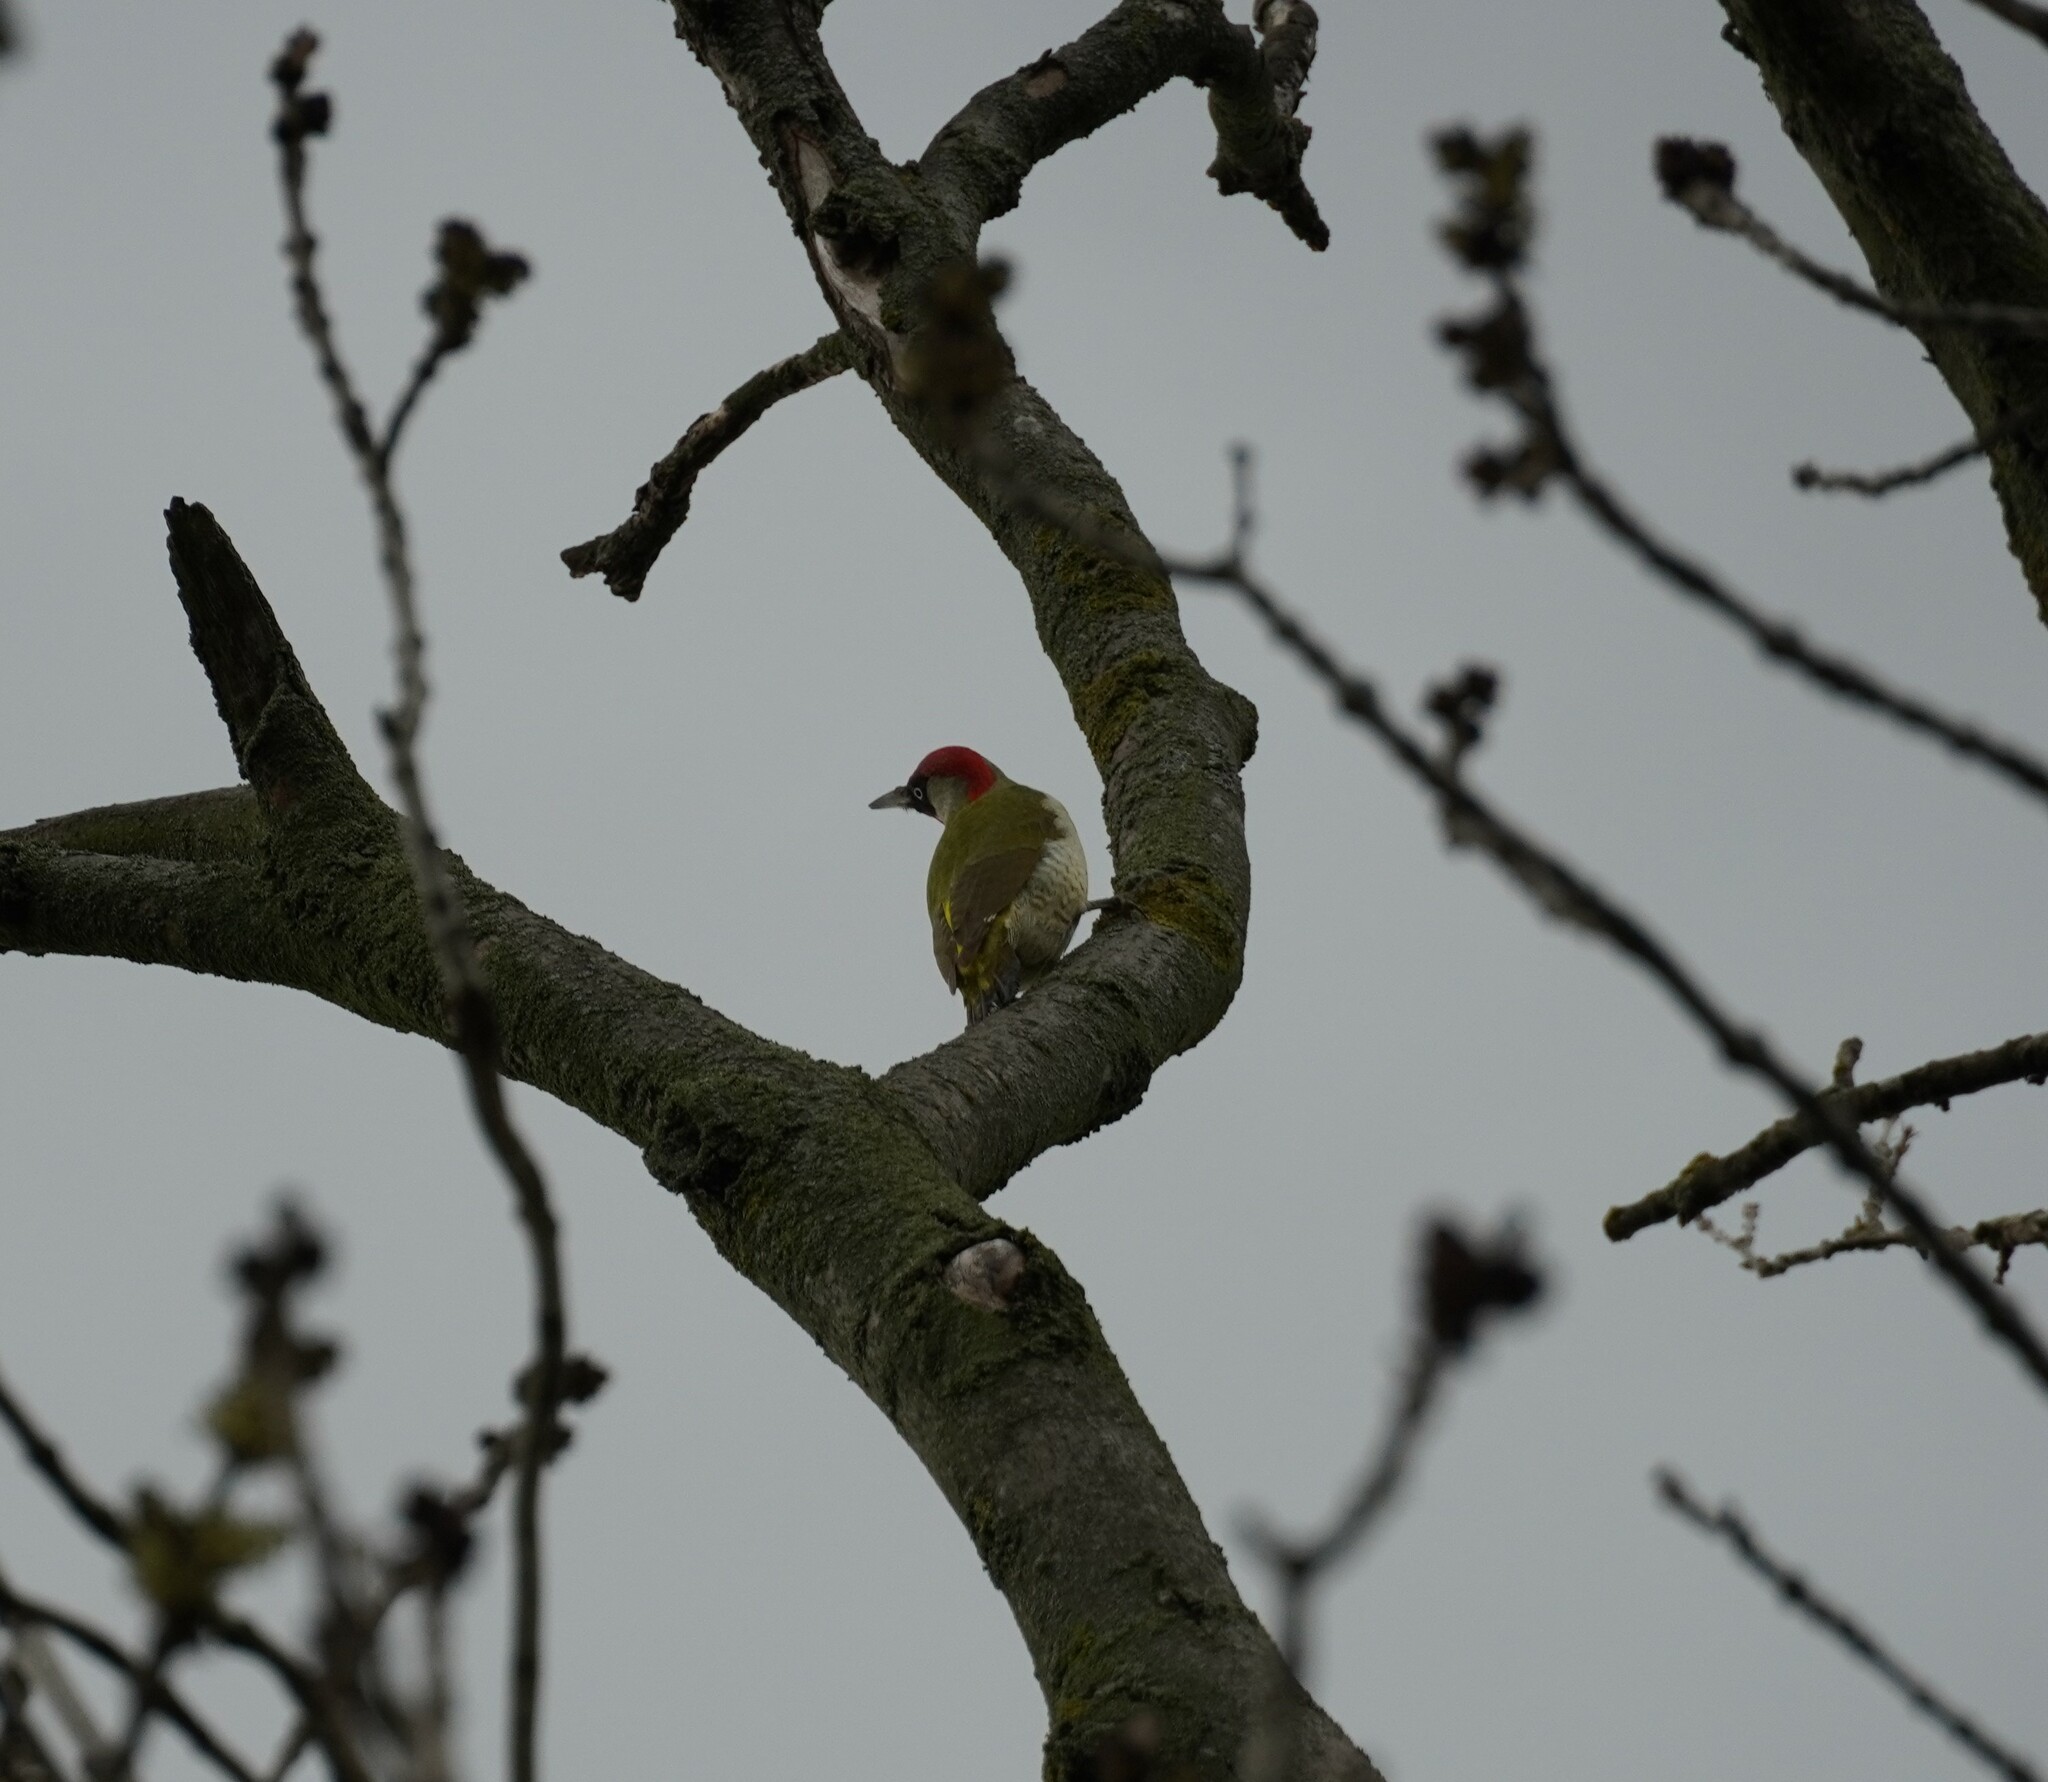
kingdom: Animalia
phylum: Chordata
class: Aves
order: Piciformes
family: Picidae
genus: Picus
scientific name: Picus viridis
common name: European green woodpecker
